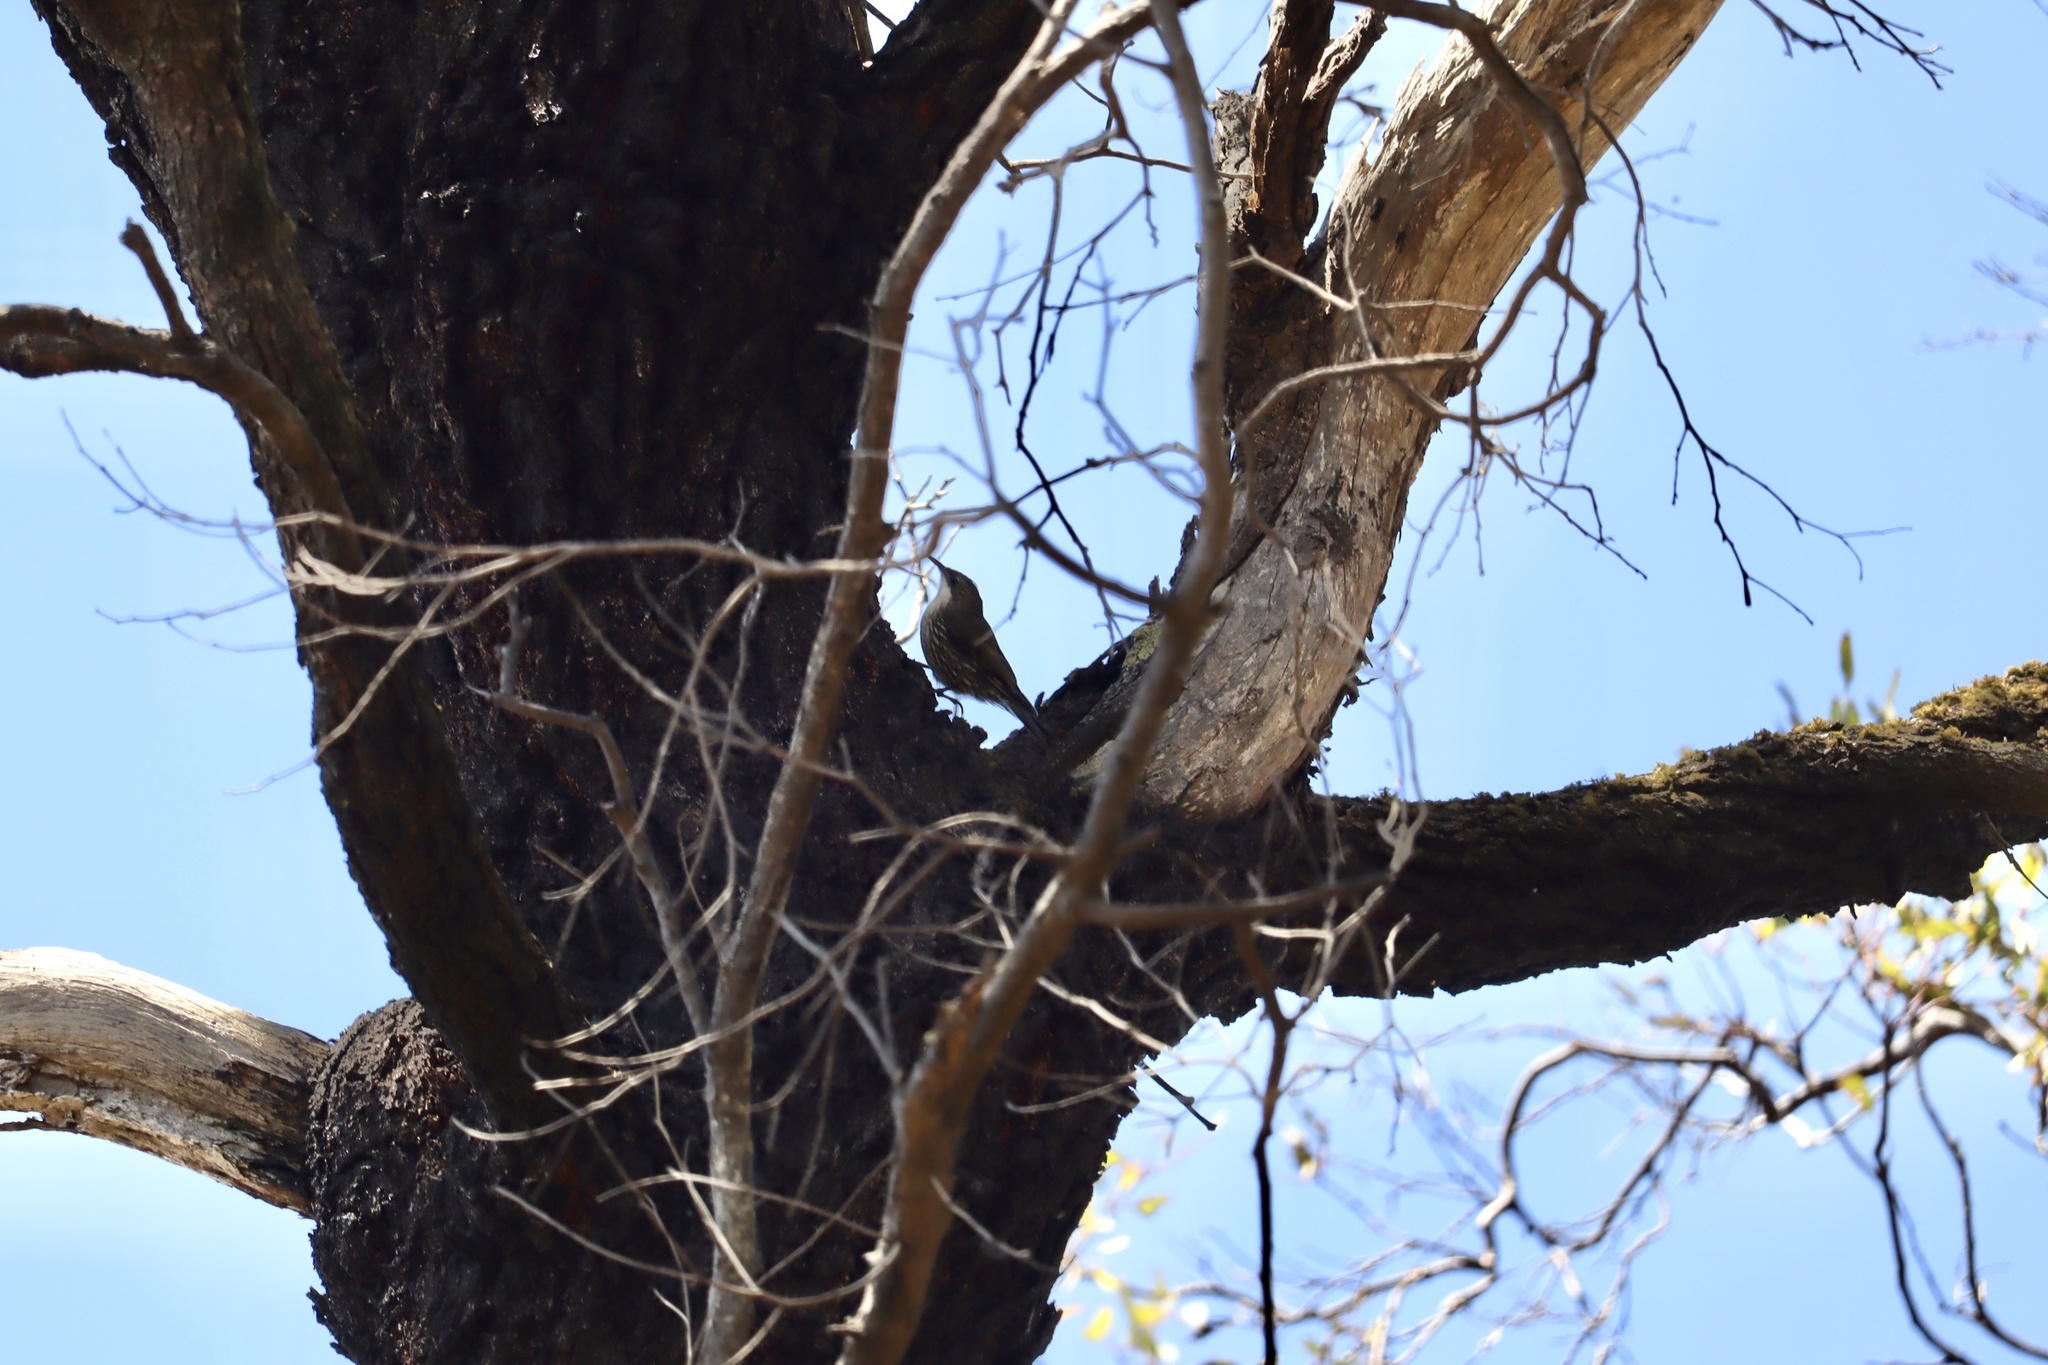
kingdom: Animalia
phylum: Chordata
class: Aves
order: Passeriformes
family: Climacteridae
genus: Cormobates
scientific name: Cormobates leucophaea
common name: White-throated treecreeper
